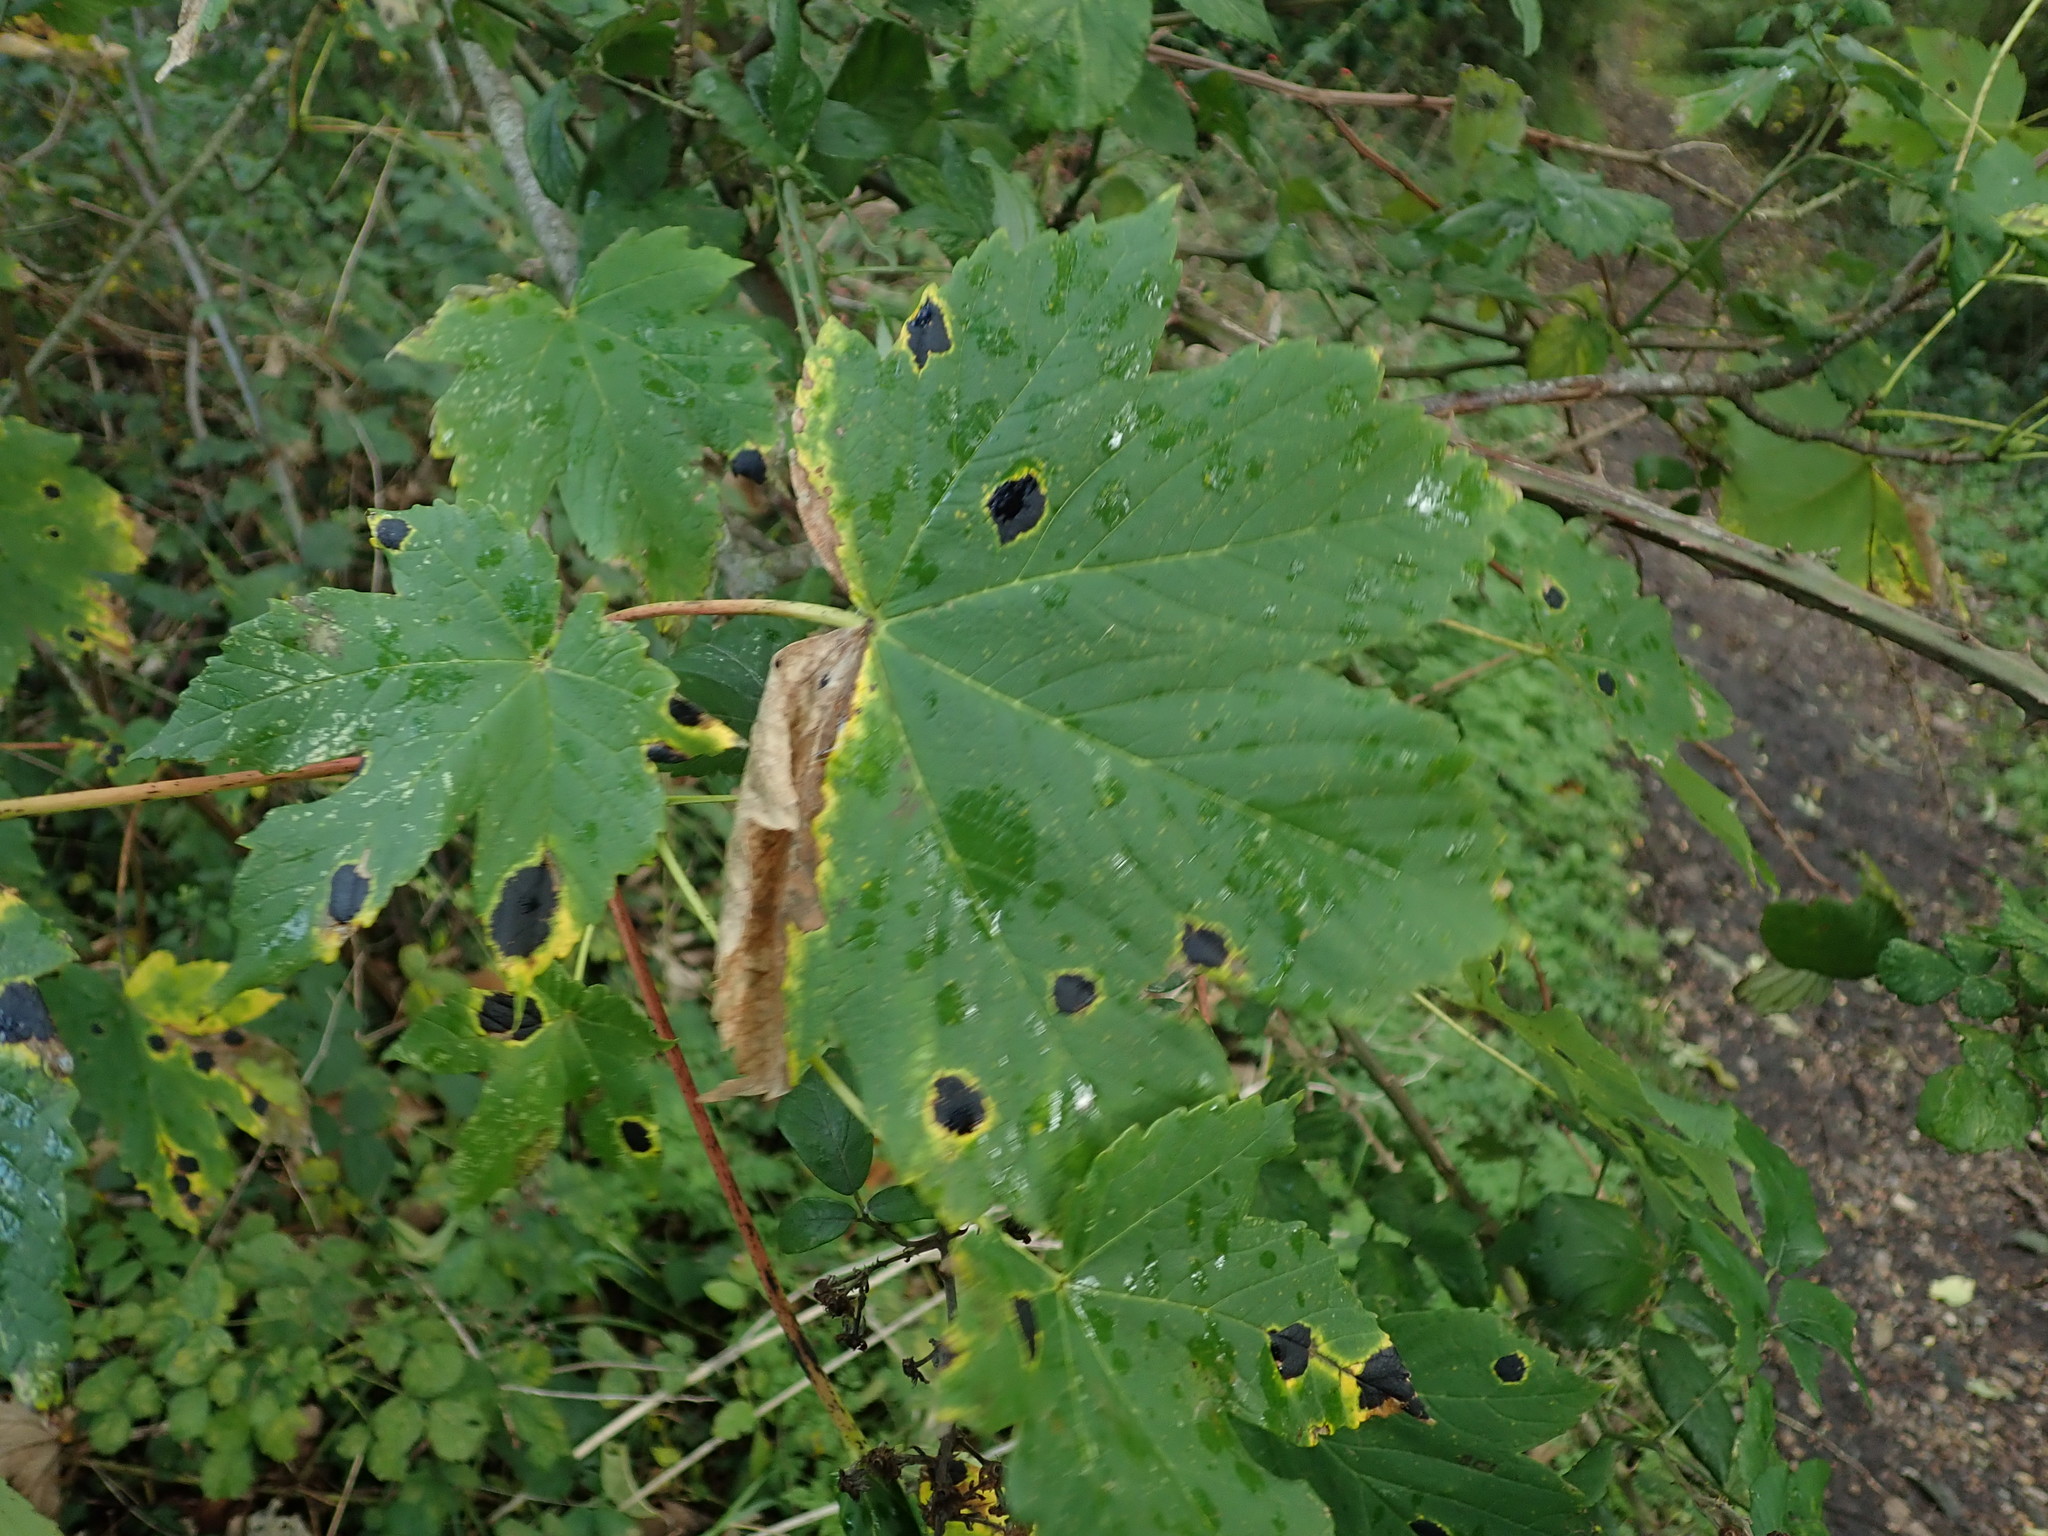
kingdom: Fungi
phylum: Ascomycota
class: Leotiomycetes
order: Rhytismatales
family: Rhytismataceae
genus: Rhytisma
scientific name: Rhytisma acerinum
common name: European tar spot
